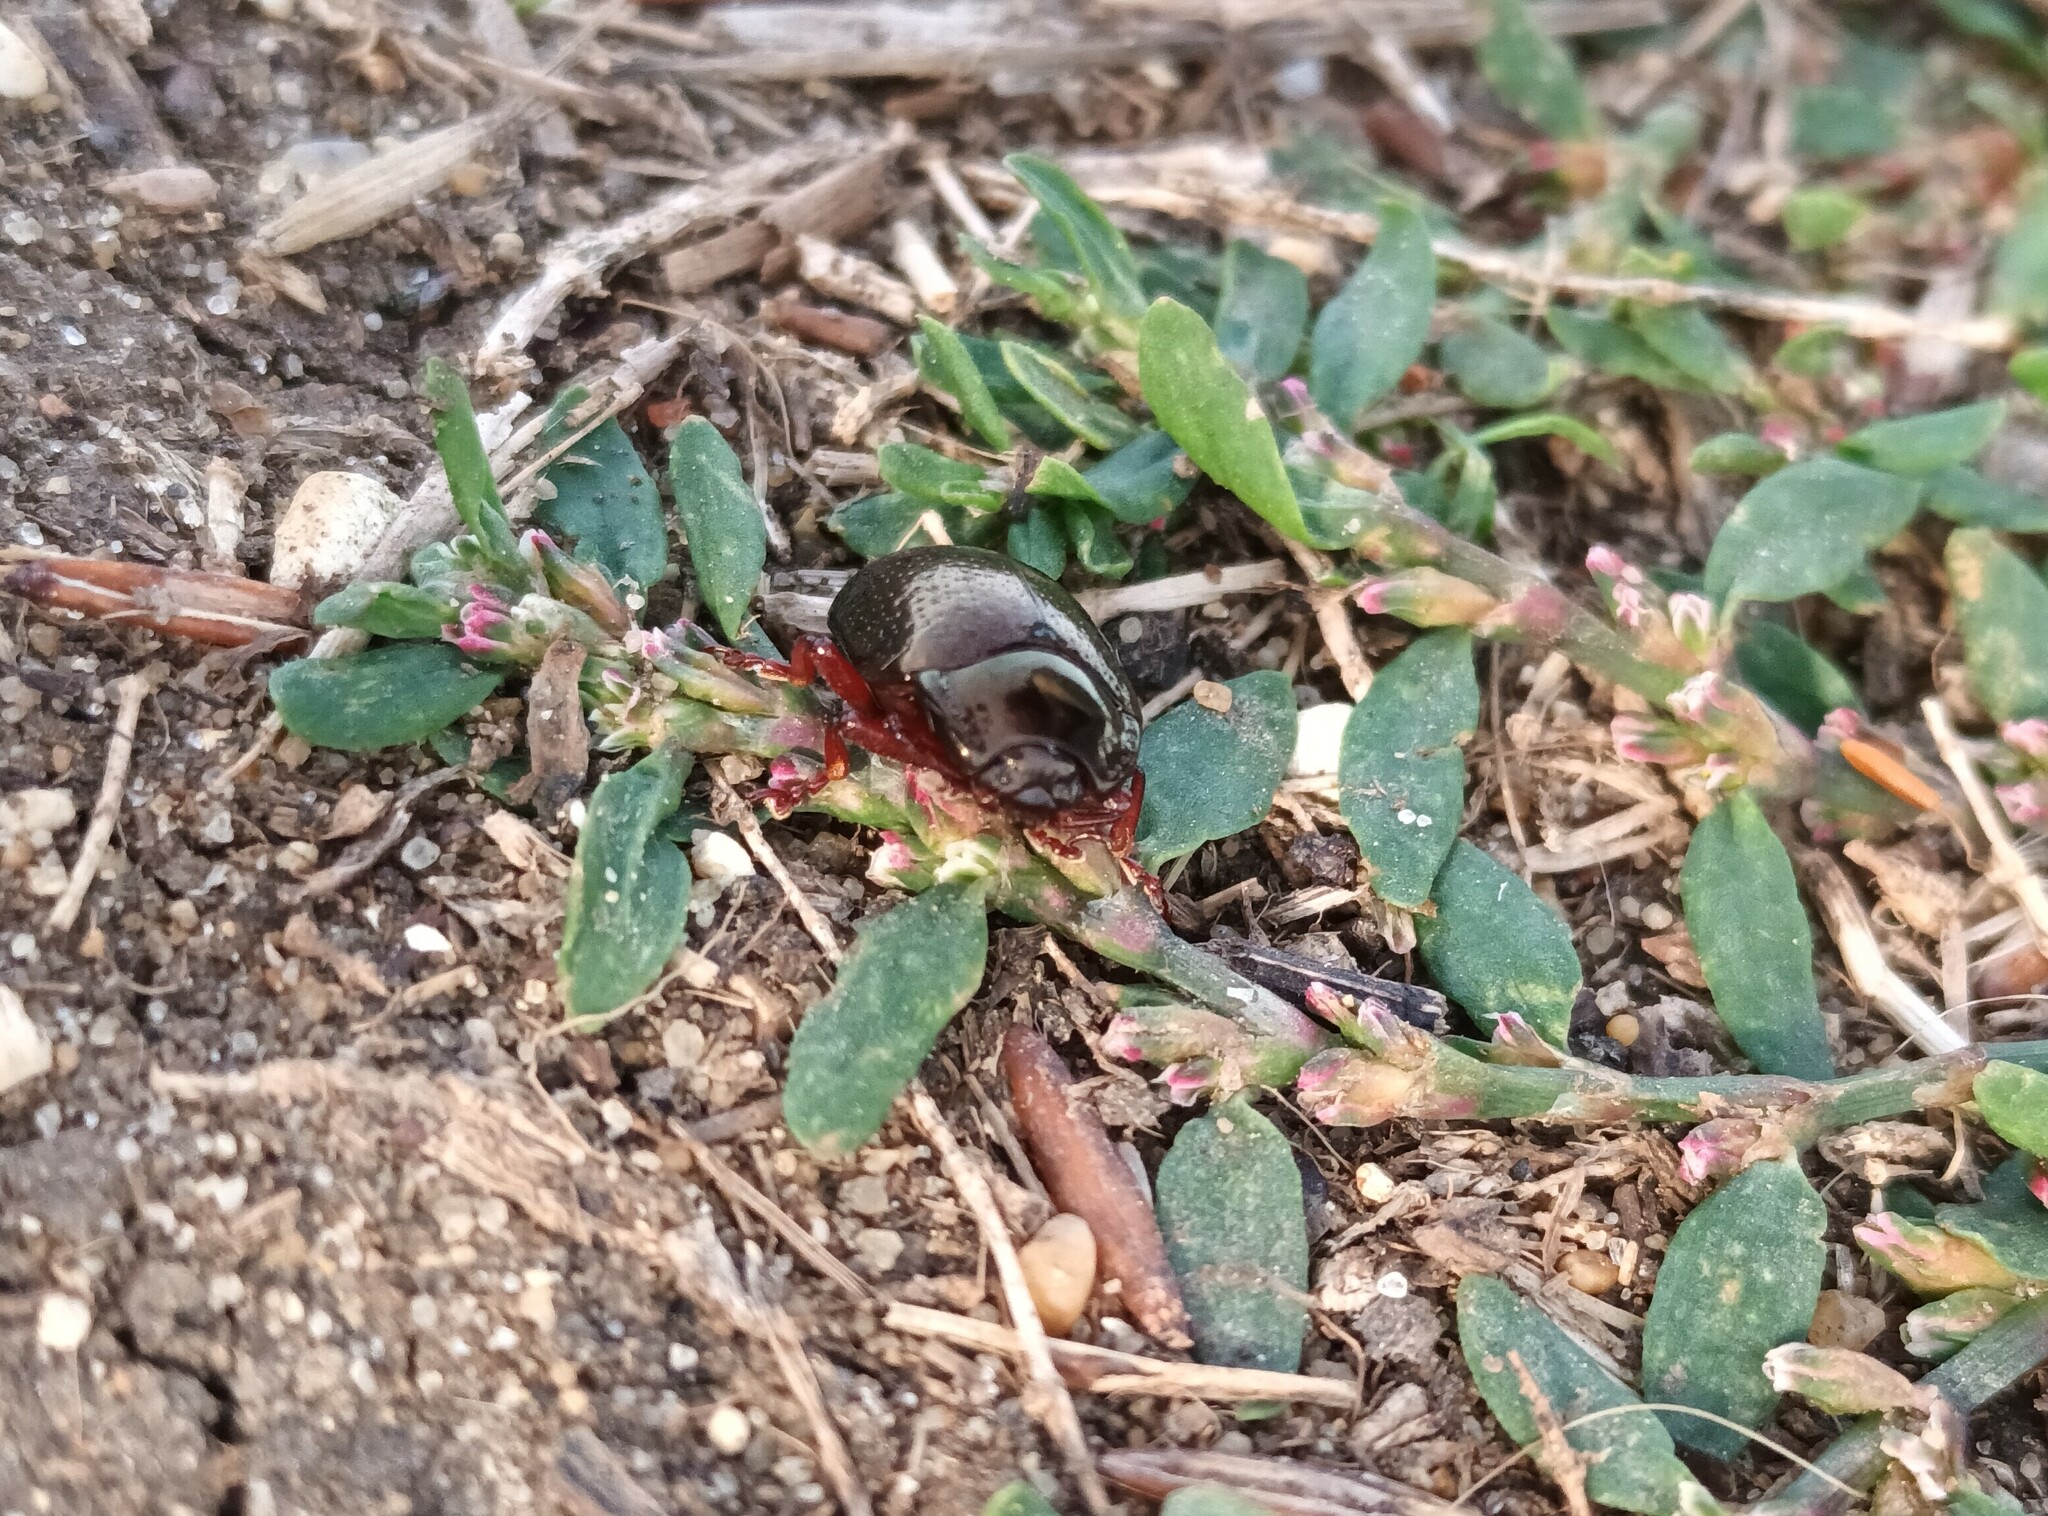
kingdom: Animalia
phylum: Arthropoda
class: Insecta
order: Coleoptera
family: Chrysomelidae
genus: Chrysolina
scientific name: Chrysolina bankii
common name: Leaf beetle
